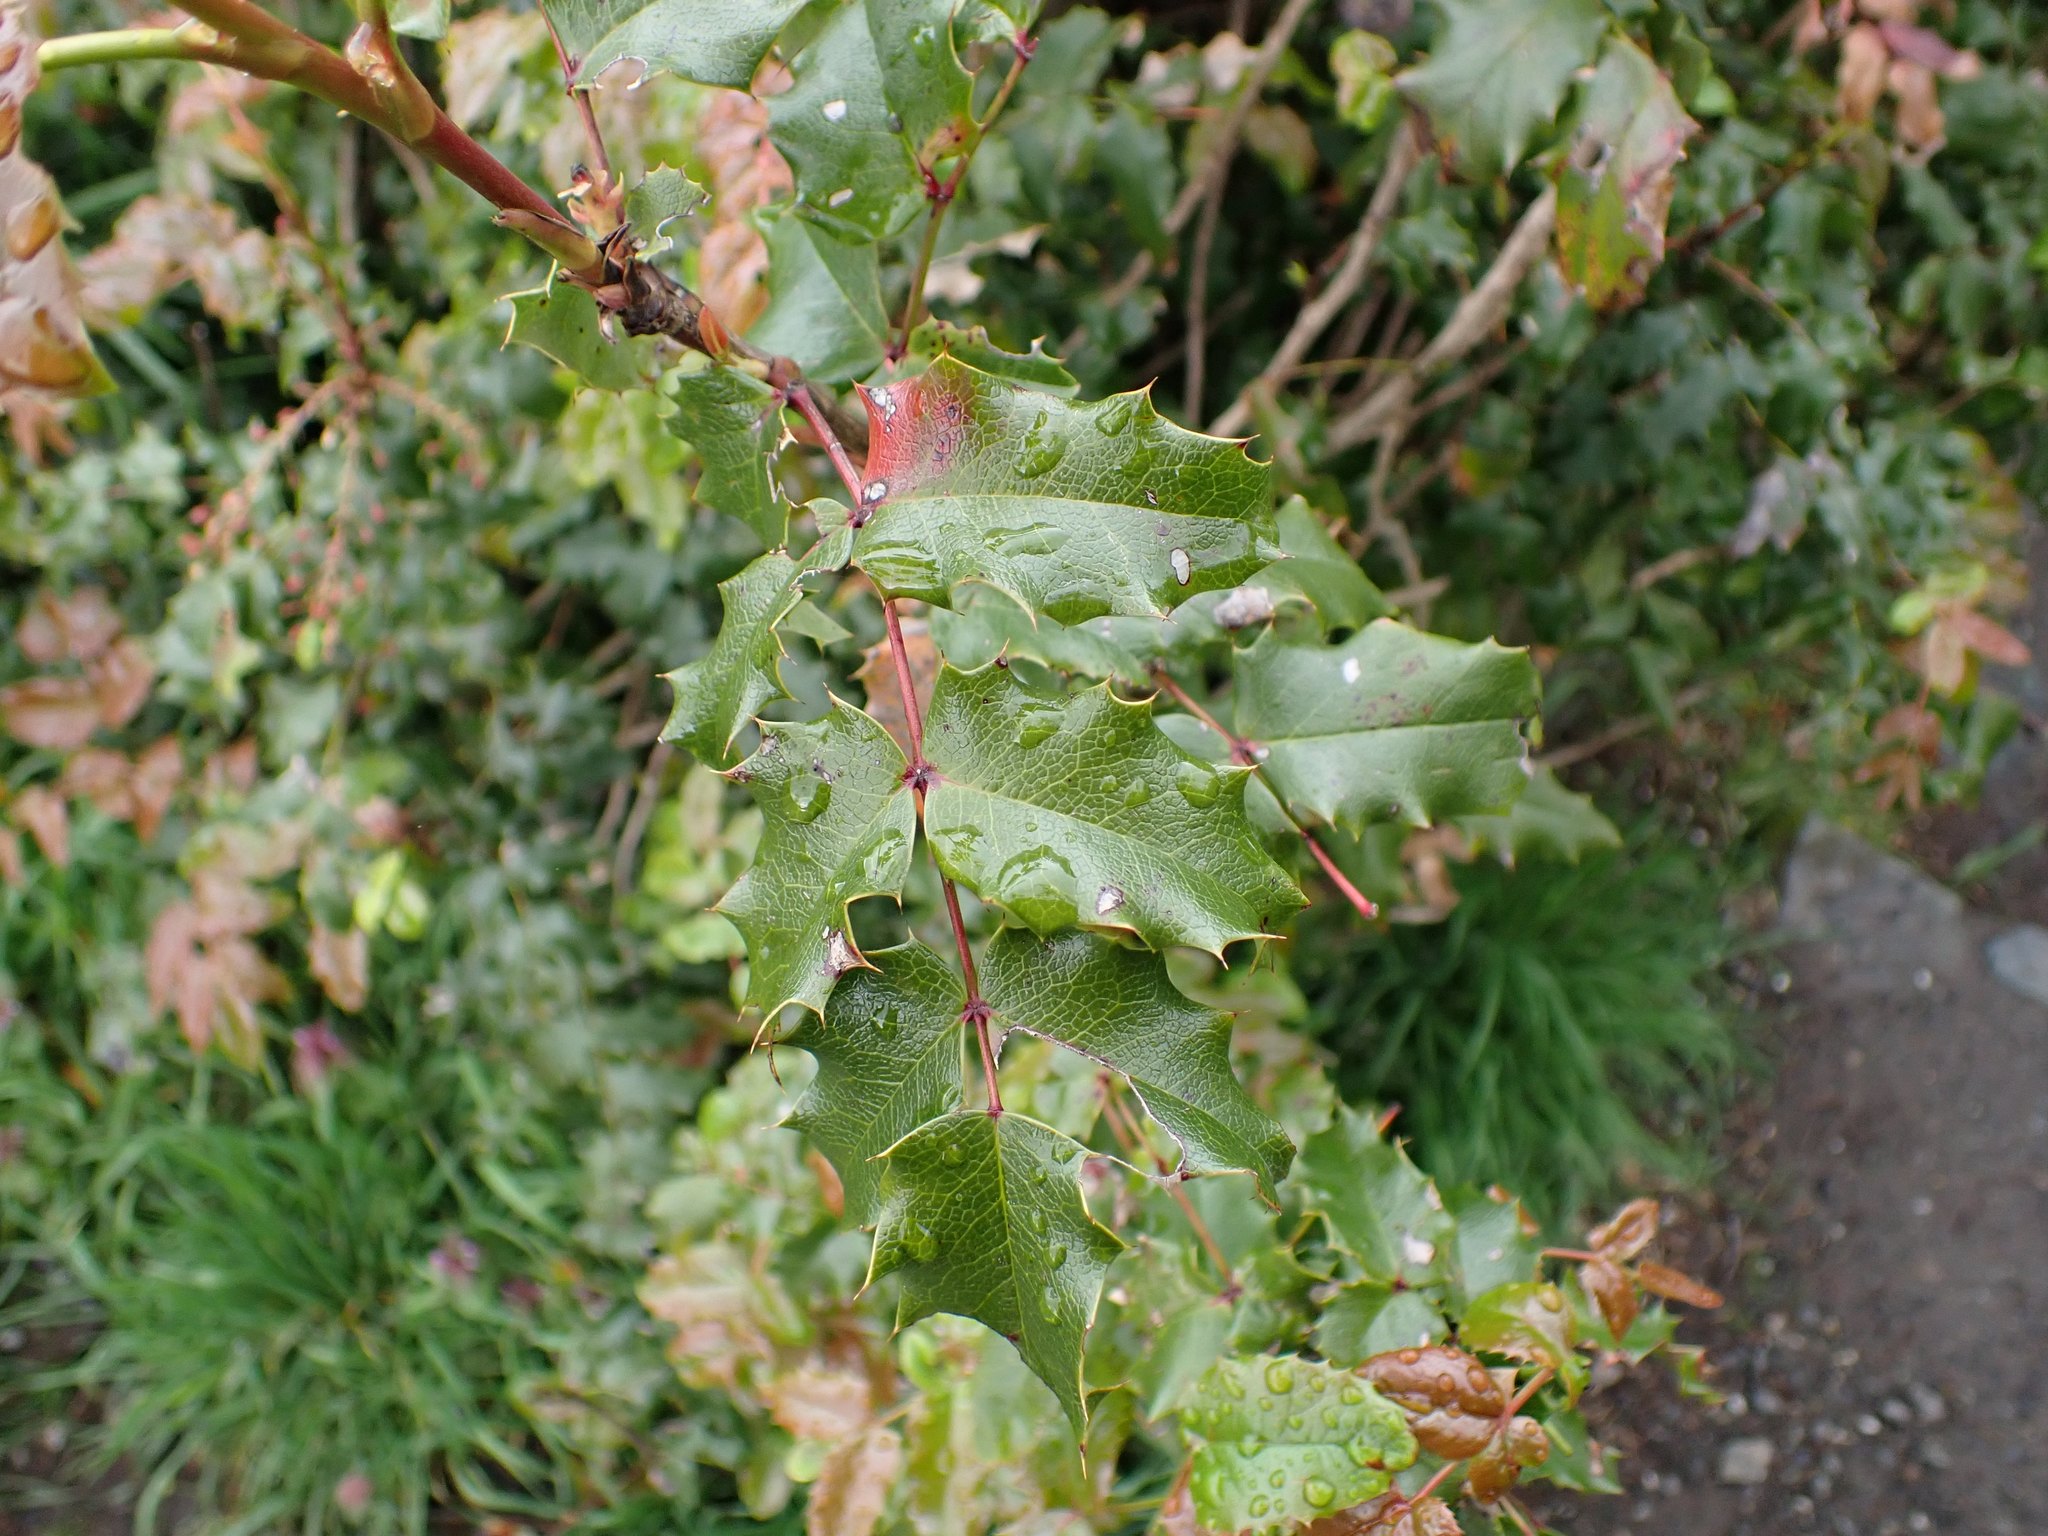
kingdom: Plantae
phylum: Tracheophyta
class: Magnoliopsida
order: Ranunculales
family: Berberidaceae
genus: Mahonia
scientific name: Mahonia aquifolium
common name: Oregon-grape
